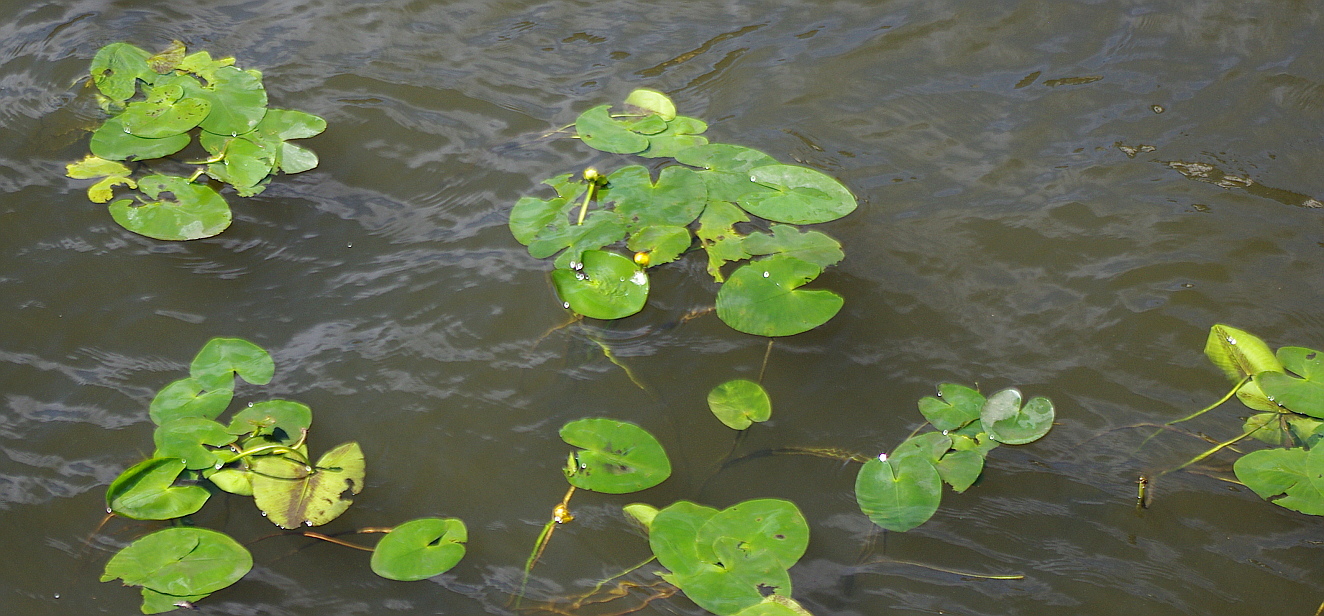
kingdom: Plantae
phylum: Tracheophyta
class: Magnoliopsida
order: Nymphaeales
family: Nymphaeaceae
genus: Nuphar
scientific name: Nuphar lutea
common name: Yellow water-lily
